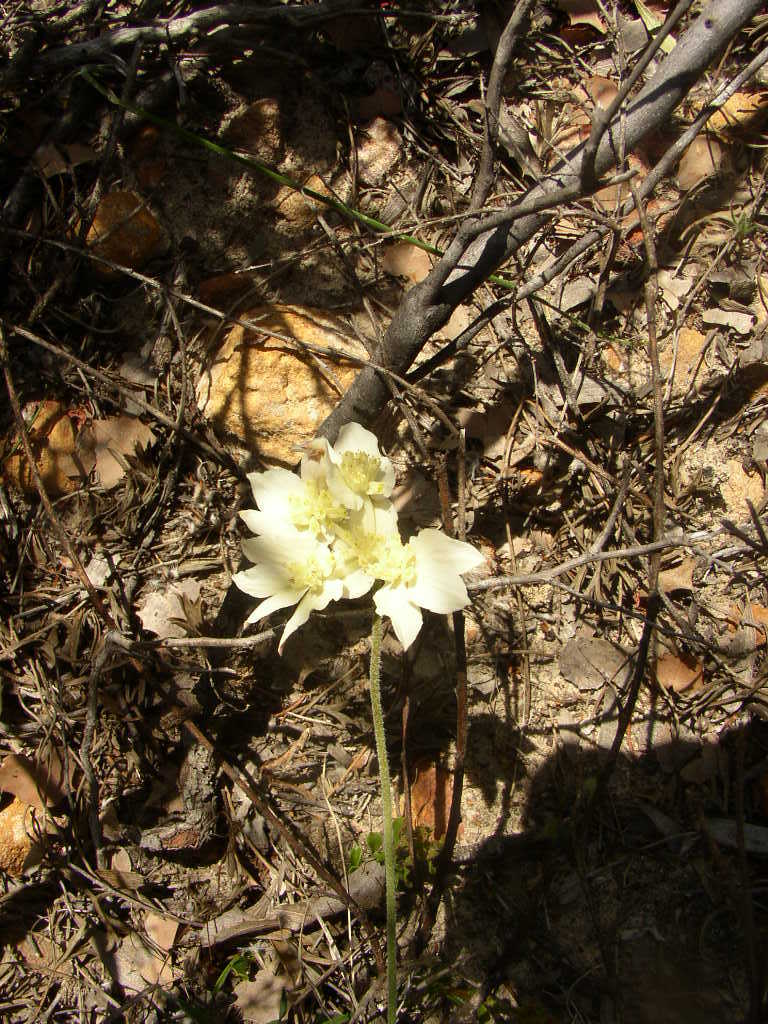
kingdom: Plantae
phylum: Tracheophyta
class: Magnoliopsida
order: Apiales
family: Apiaceae
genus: Xanthosia
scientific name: Xanthosia tomentosa
